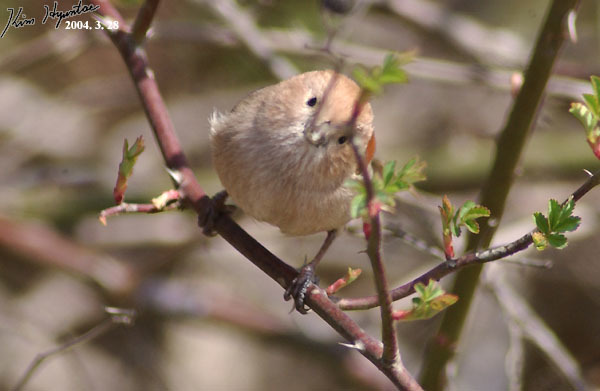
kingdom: Animalia
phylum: Chordata
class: Aves
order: Passeriformes
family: Sylviidae
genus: Sinosuthora
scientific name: Sinosuthora webbiana
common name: Vinous-throated parrotbill
